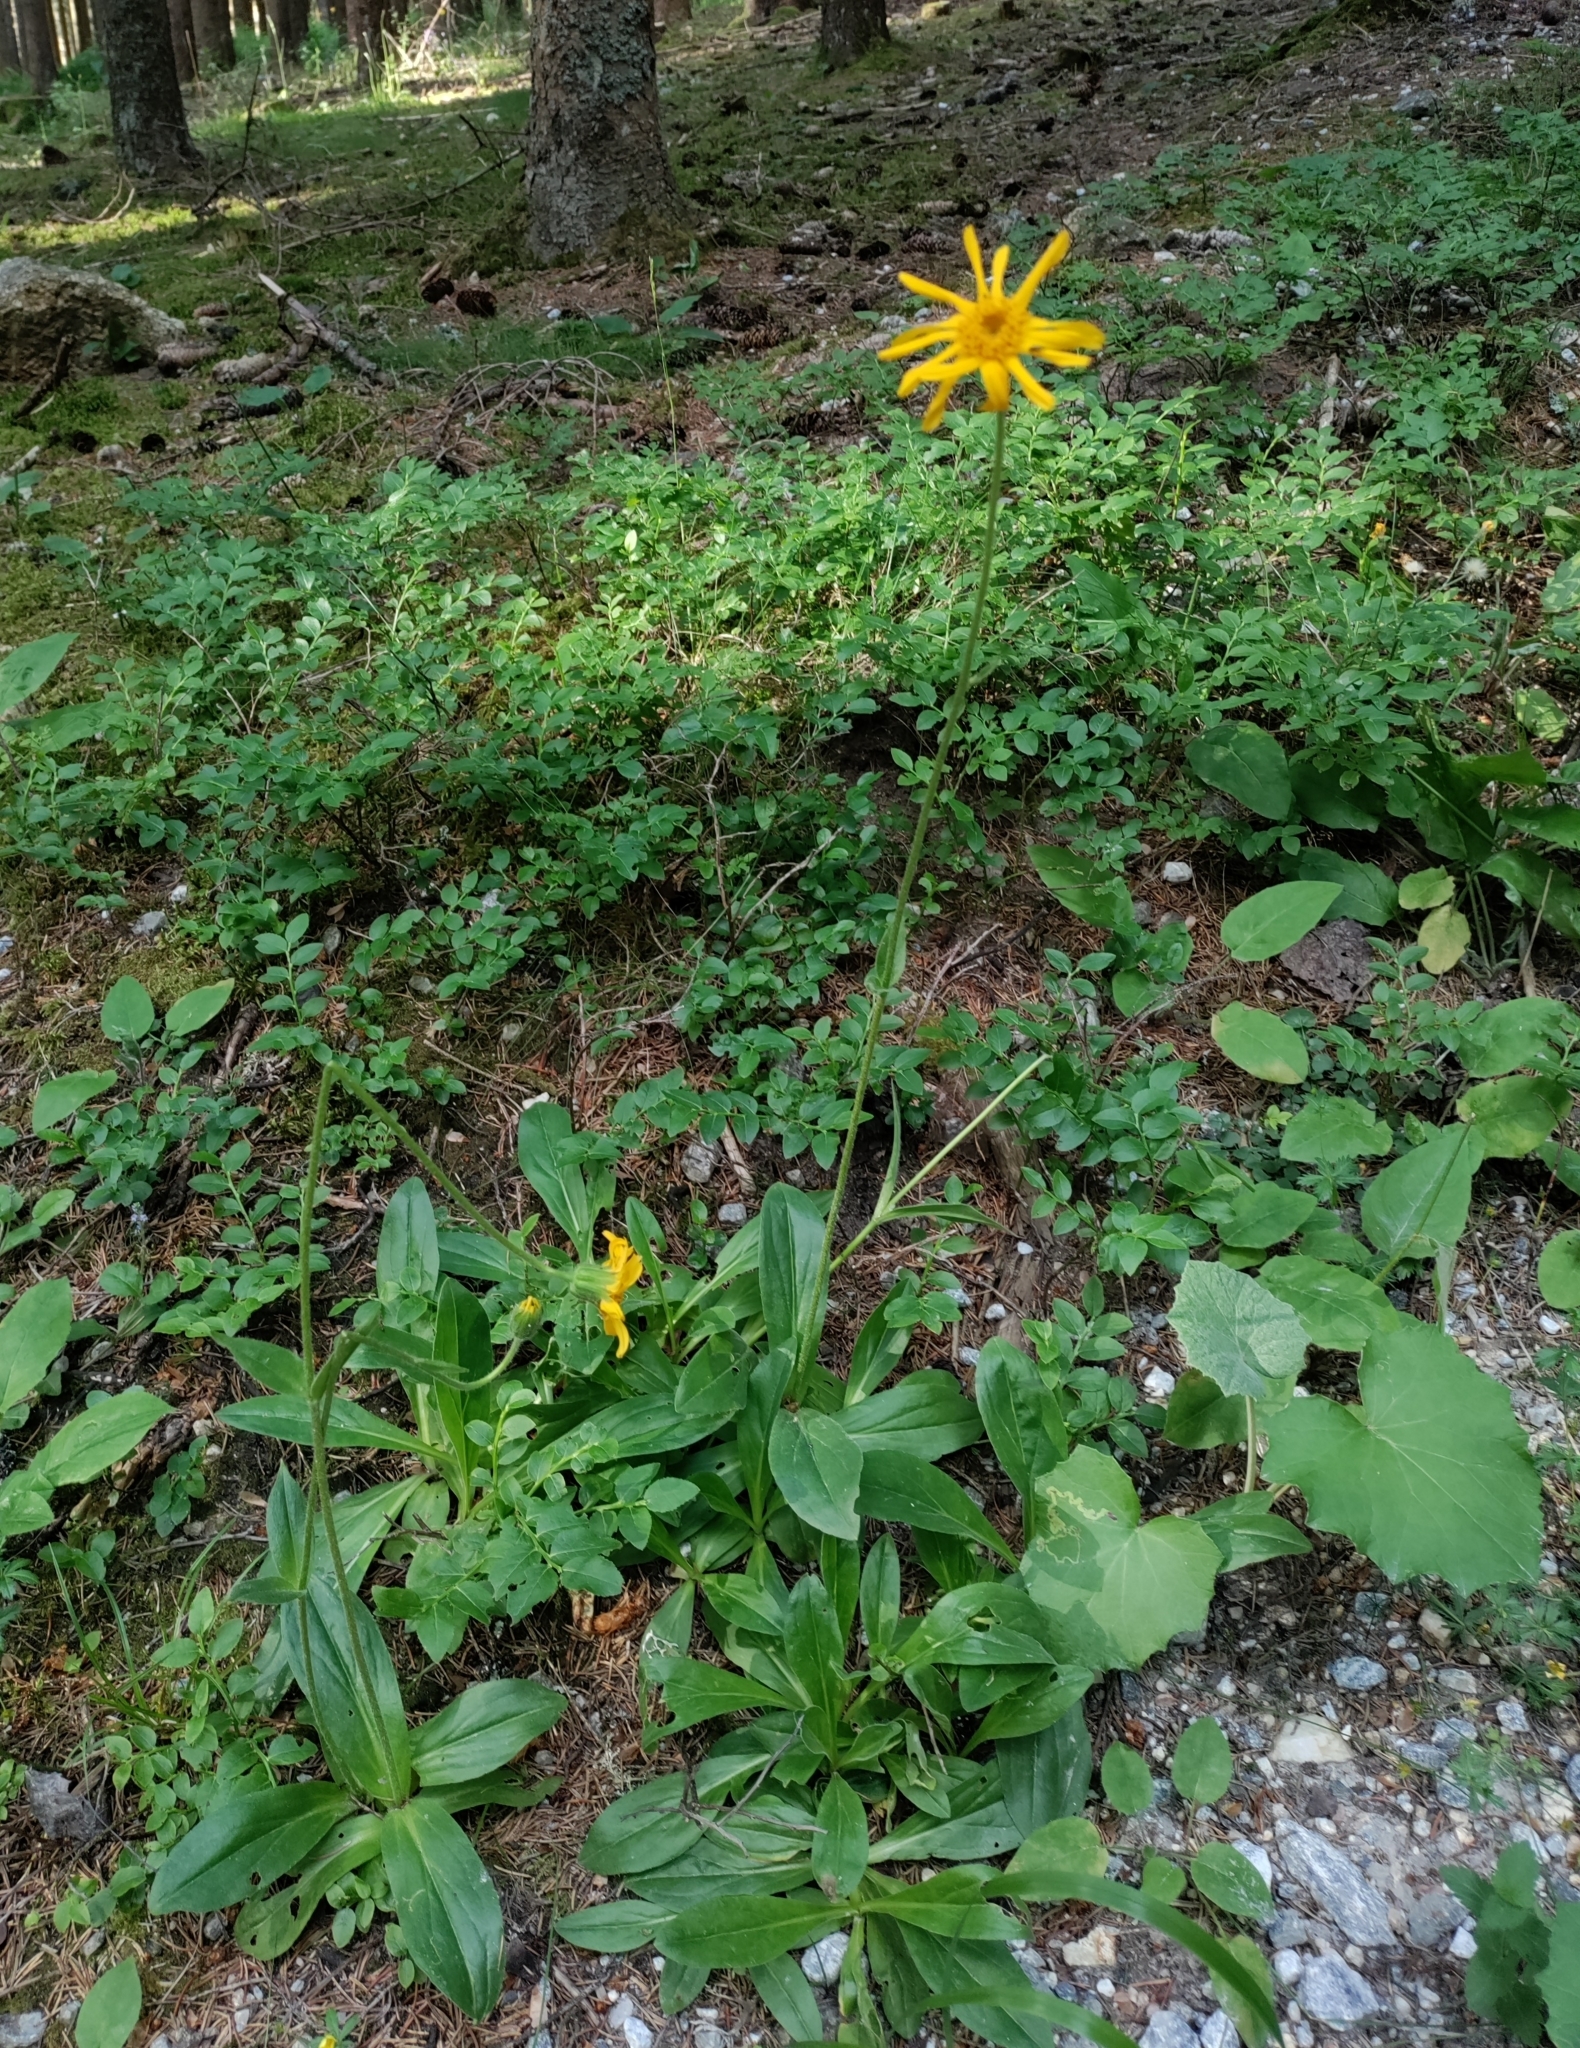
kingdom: Plantae
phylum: Tracheophyta
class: Magnoliopsida
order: Asterales
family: Asteraceae
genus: Arnica
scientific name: Arnica montana
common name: Leopard's bane
